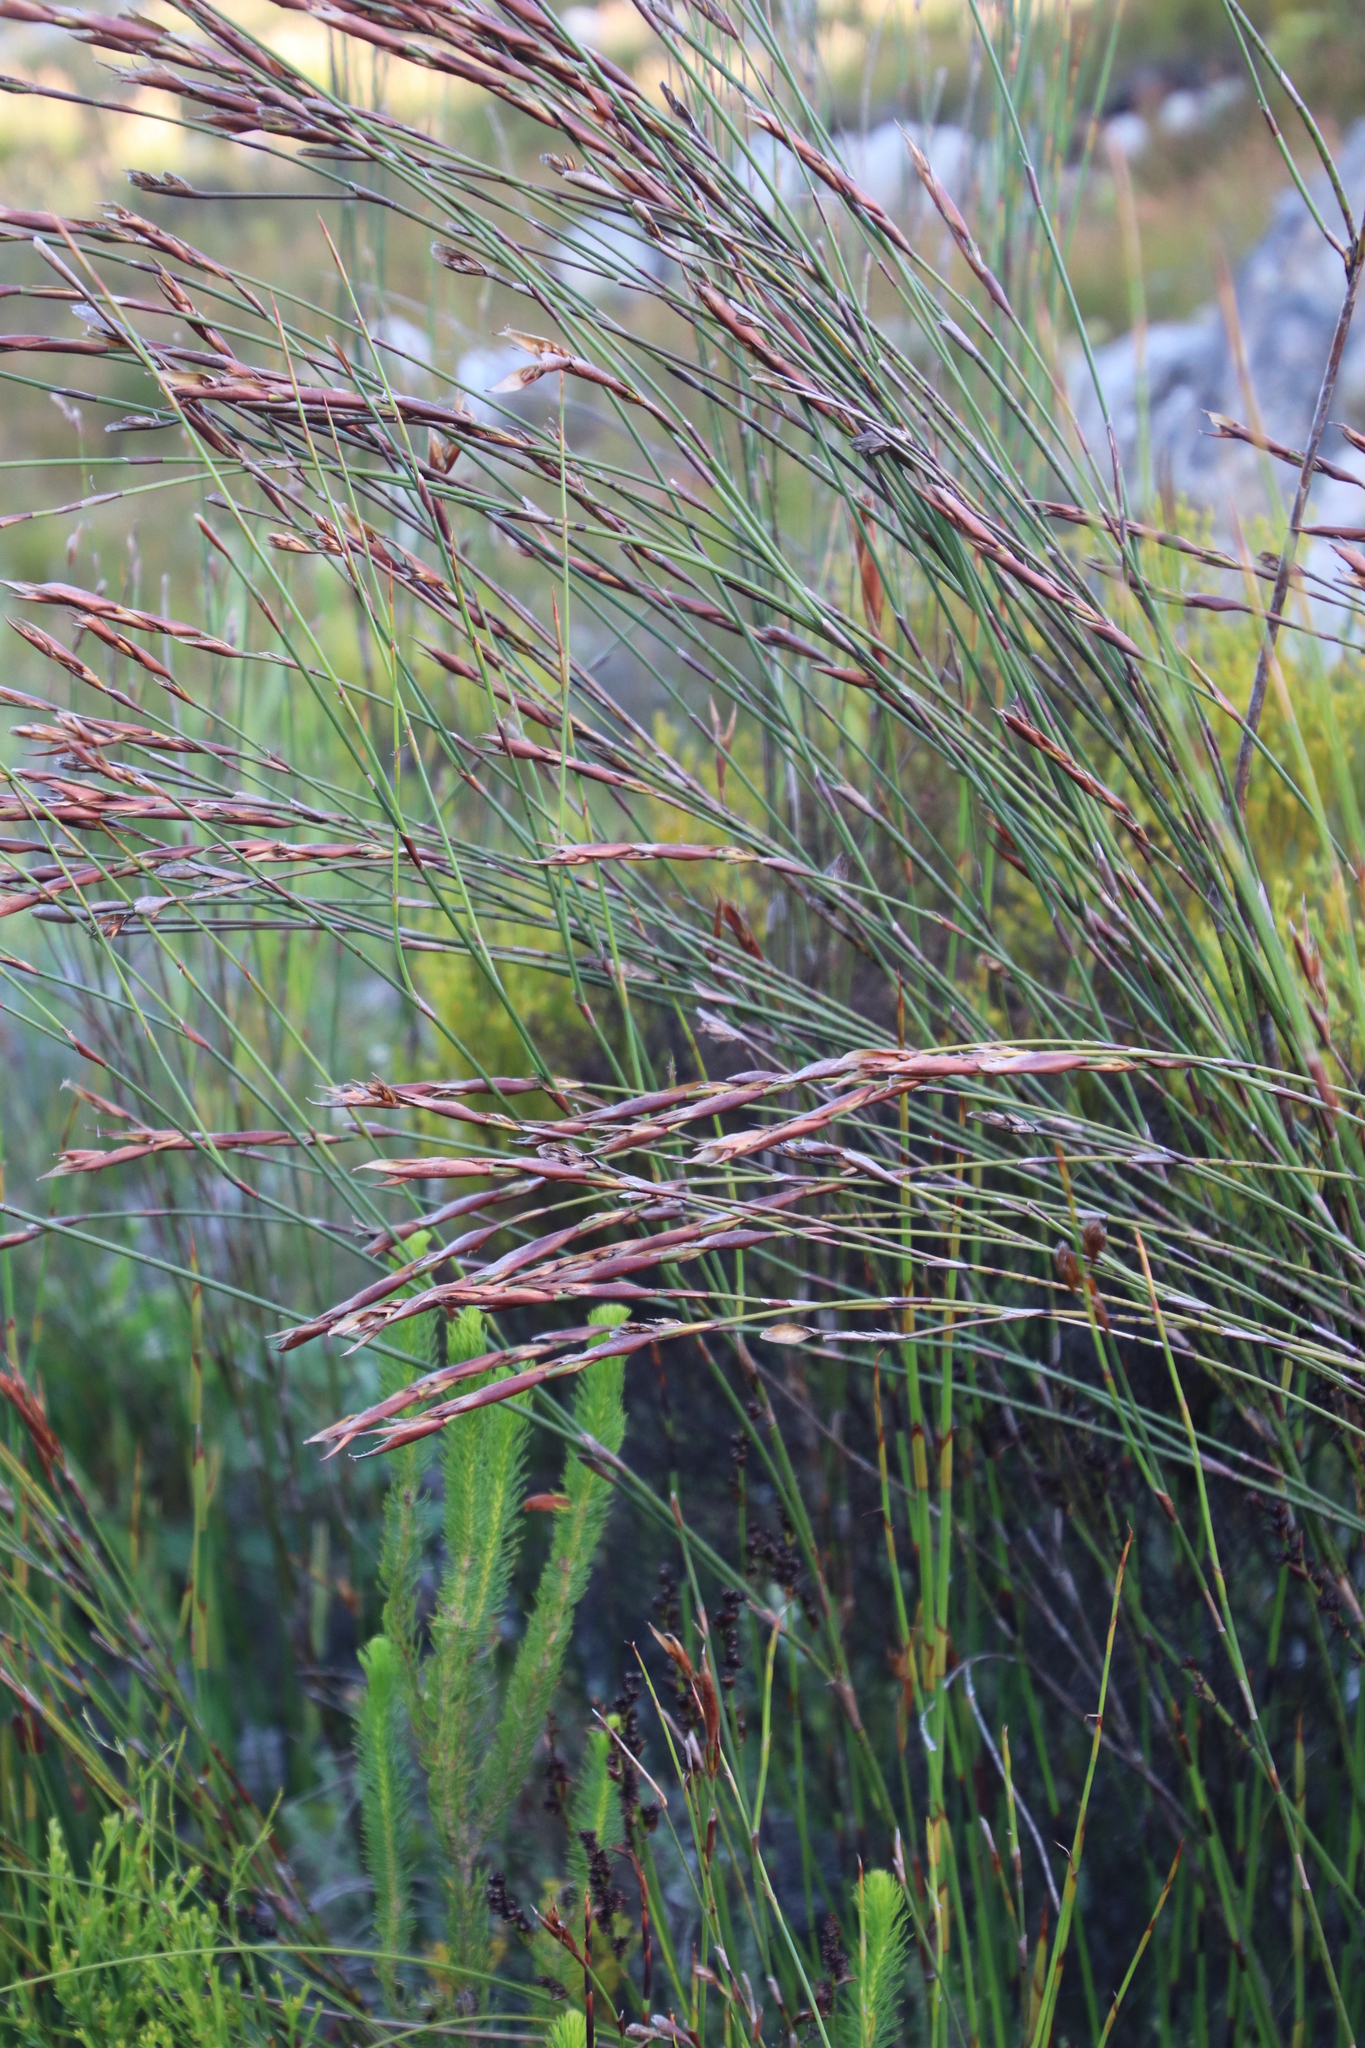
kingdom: Plantae
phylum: Tracheophyta
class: Liliopsida
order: Poales
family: Restionaceae
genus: Restio
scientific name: Restio dispar
